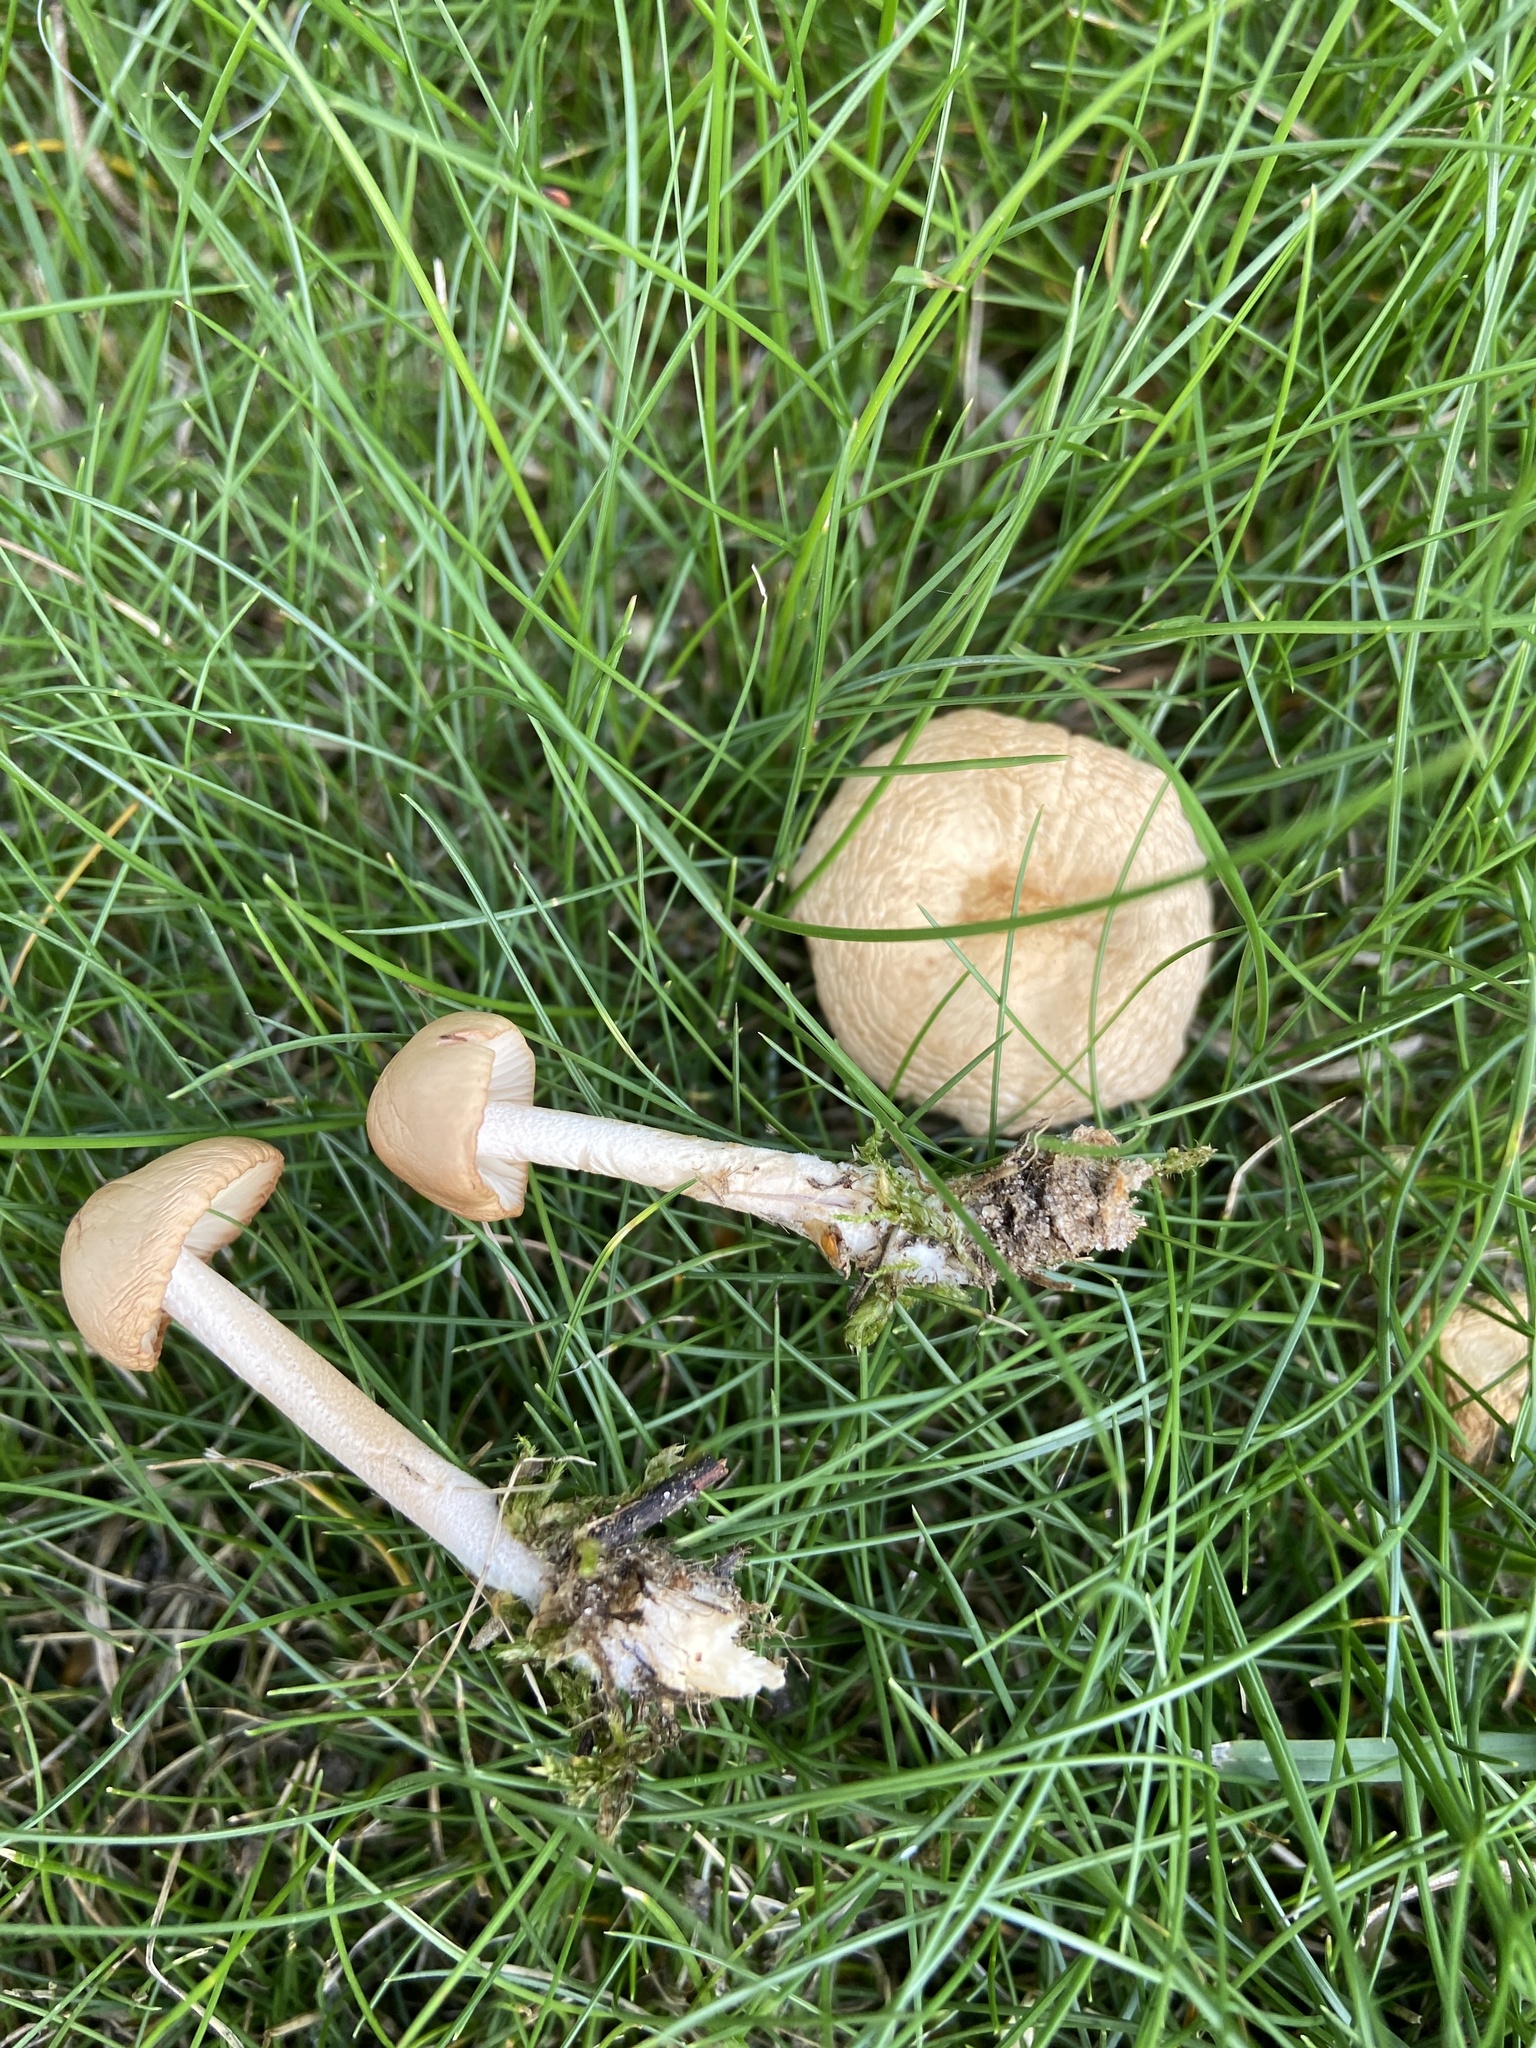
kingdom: Fungi
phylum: Basidiomycota
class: Agaricomycetes
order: Agaricales
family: Marasmiaceae
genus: Marasmius
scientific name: Marasmius oreades
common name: Fairy ring champignon
